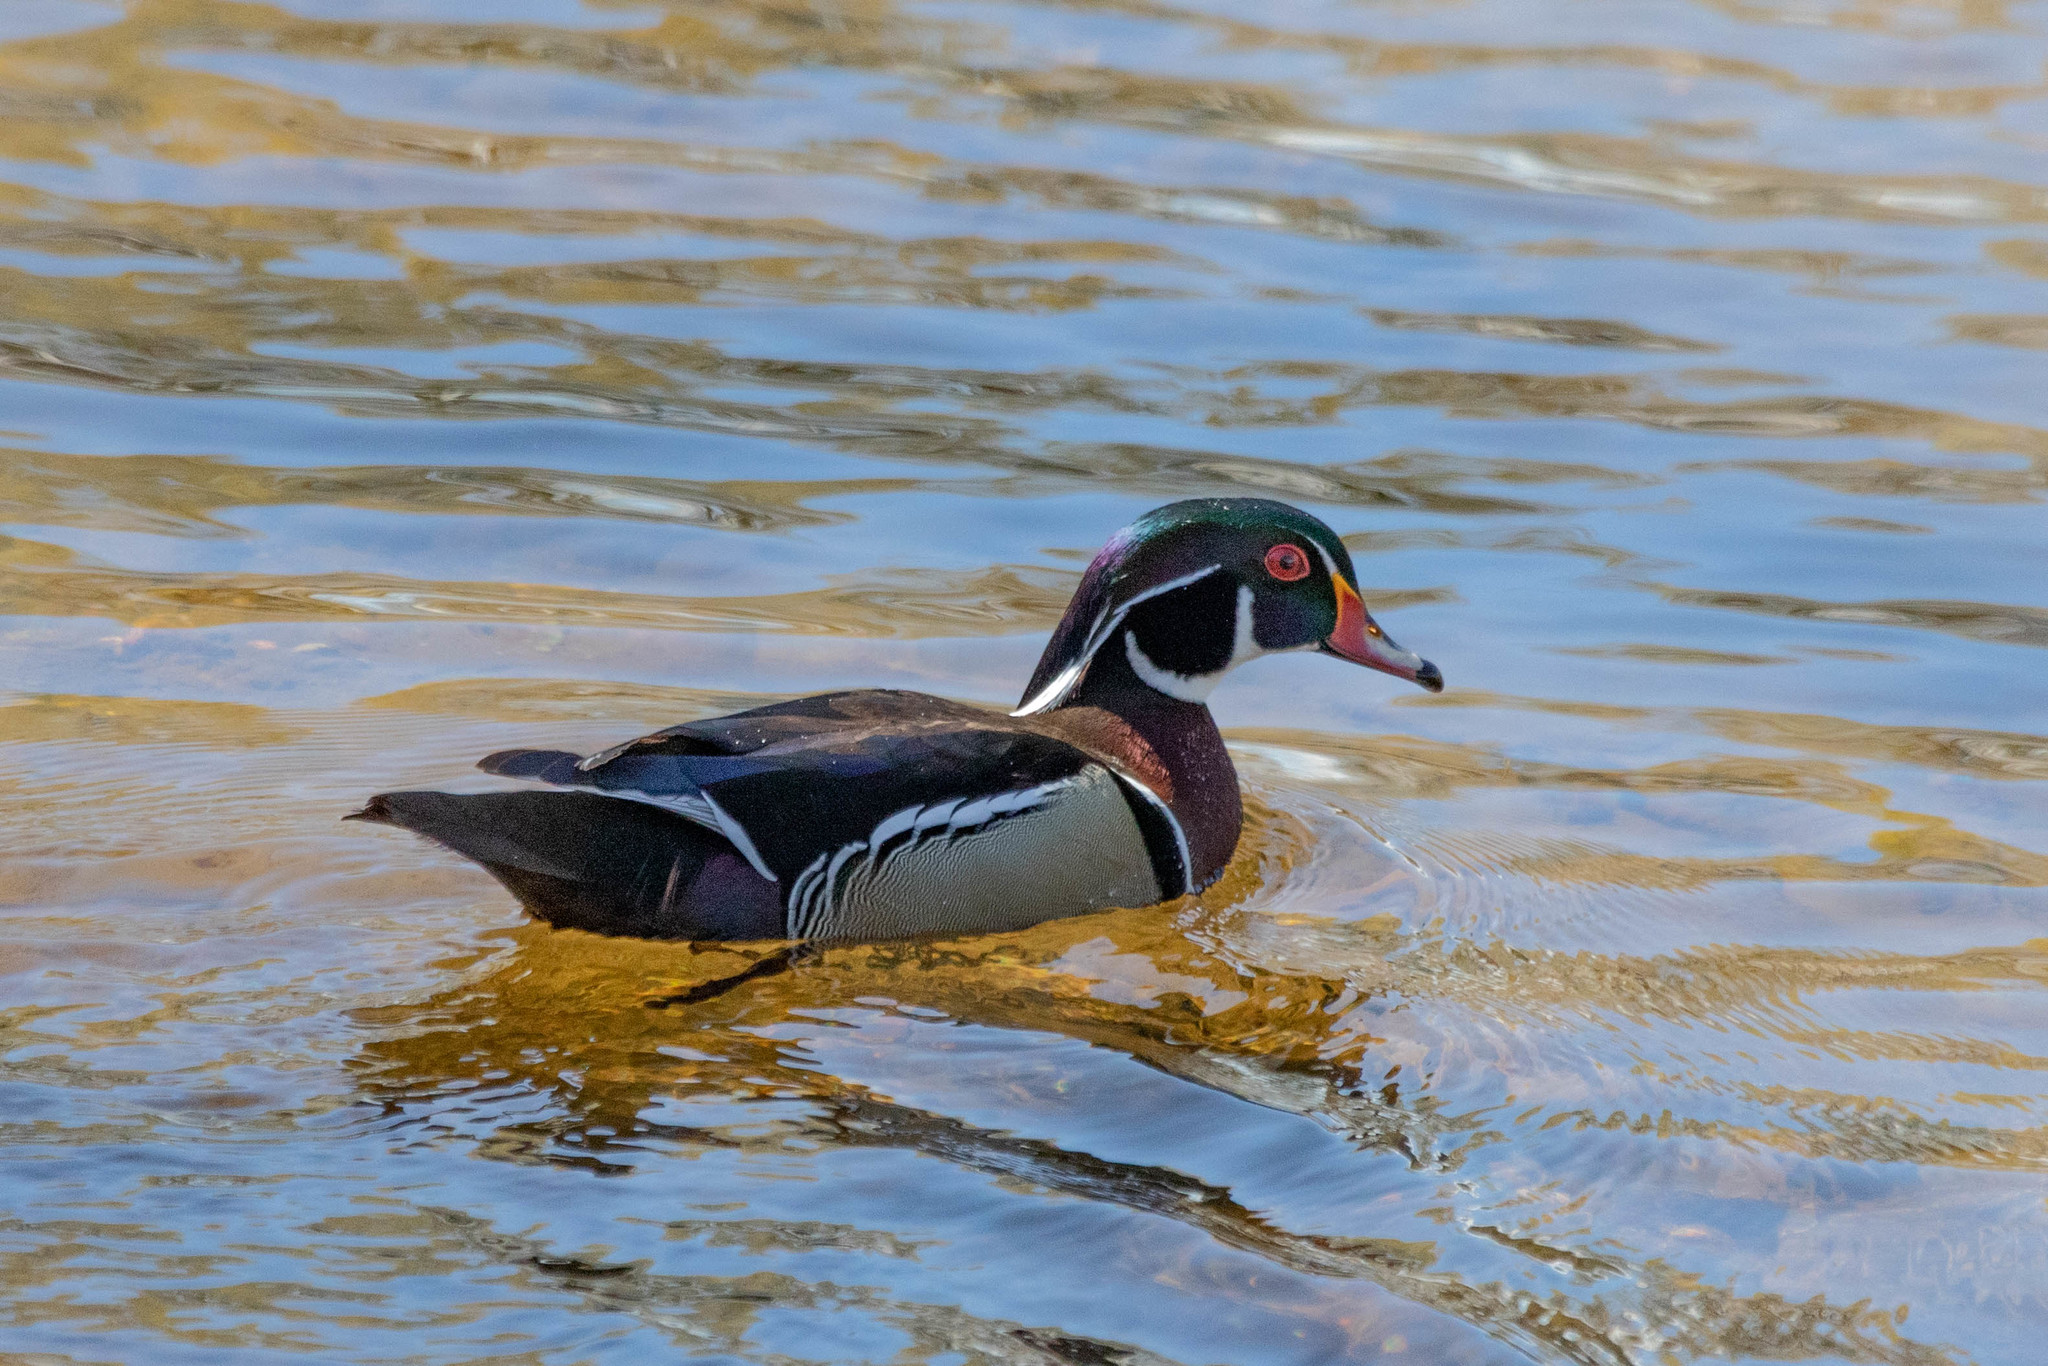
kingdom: Animalia
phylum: Chordata
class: Aves
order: Anseriformes
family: Anatidae
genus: Aix
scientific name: Aix sponsa
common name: Wood duck
